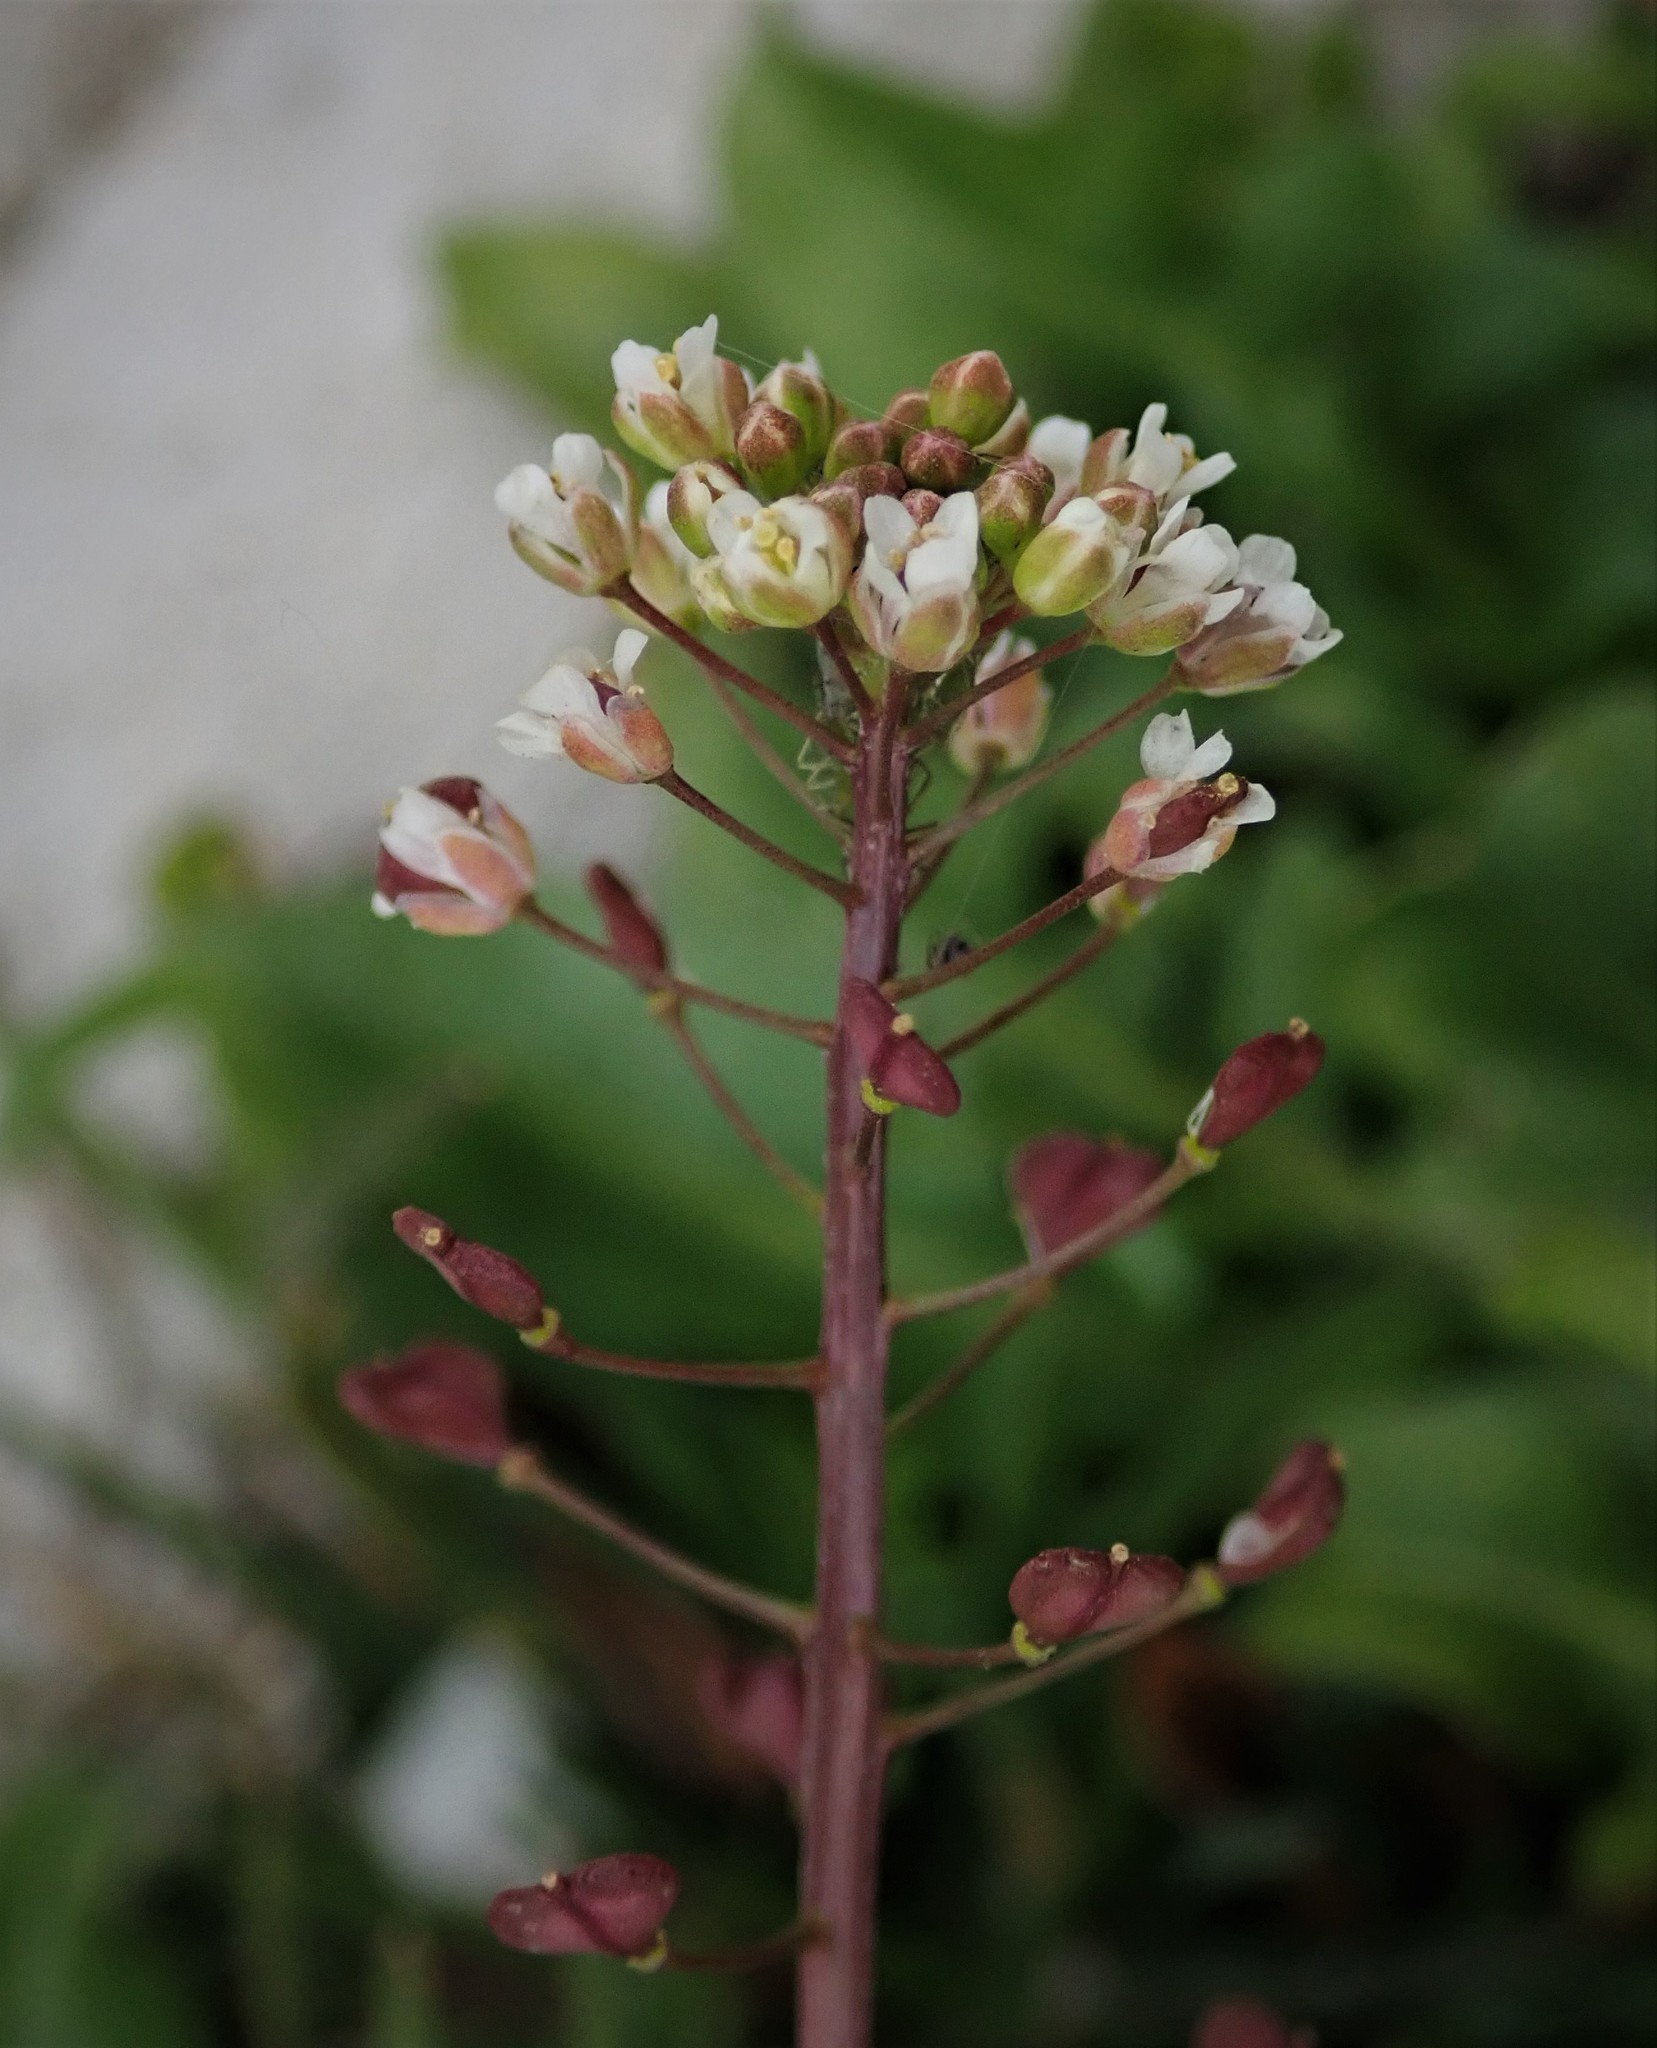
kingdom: Plantae
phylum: Tracheophyta
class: Magnoliopsida
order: Brassicales
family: Brassicaceae
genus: Capsella
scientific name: Capsella bursa-pastoris
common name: Shepherd's purse
